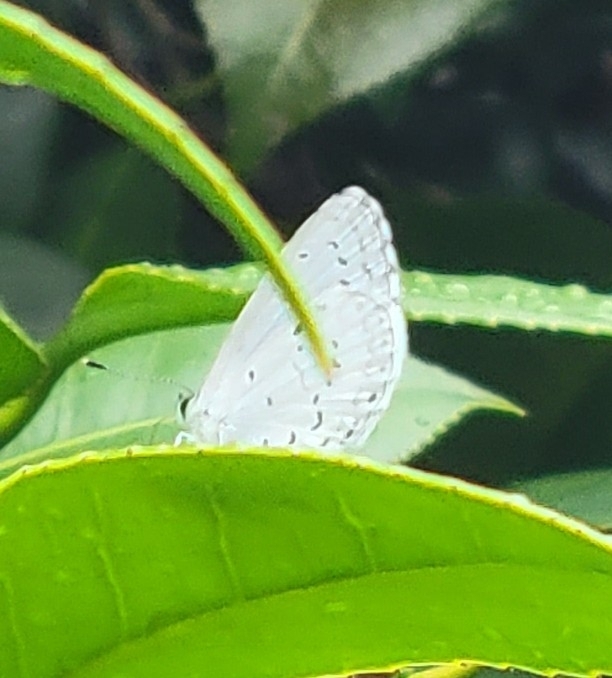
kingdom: Animalia
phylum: Arthropoda
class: Insecta
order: Lepidoptera
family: Lycaenidae
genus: Cyaniris
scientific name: Cyaniris neglecta
